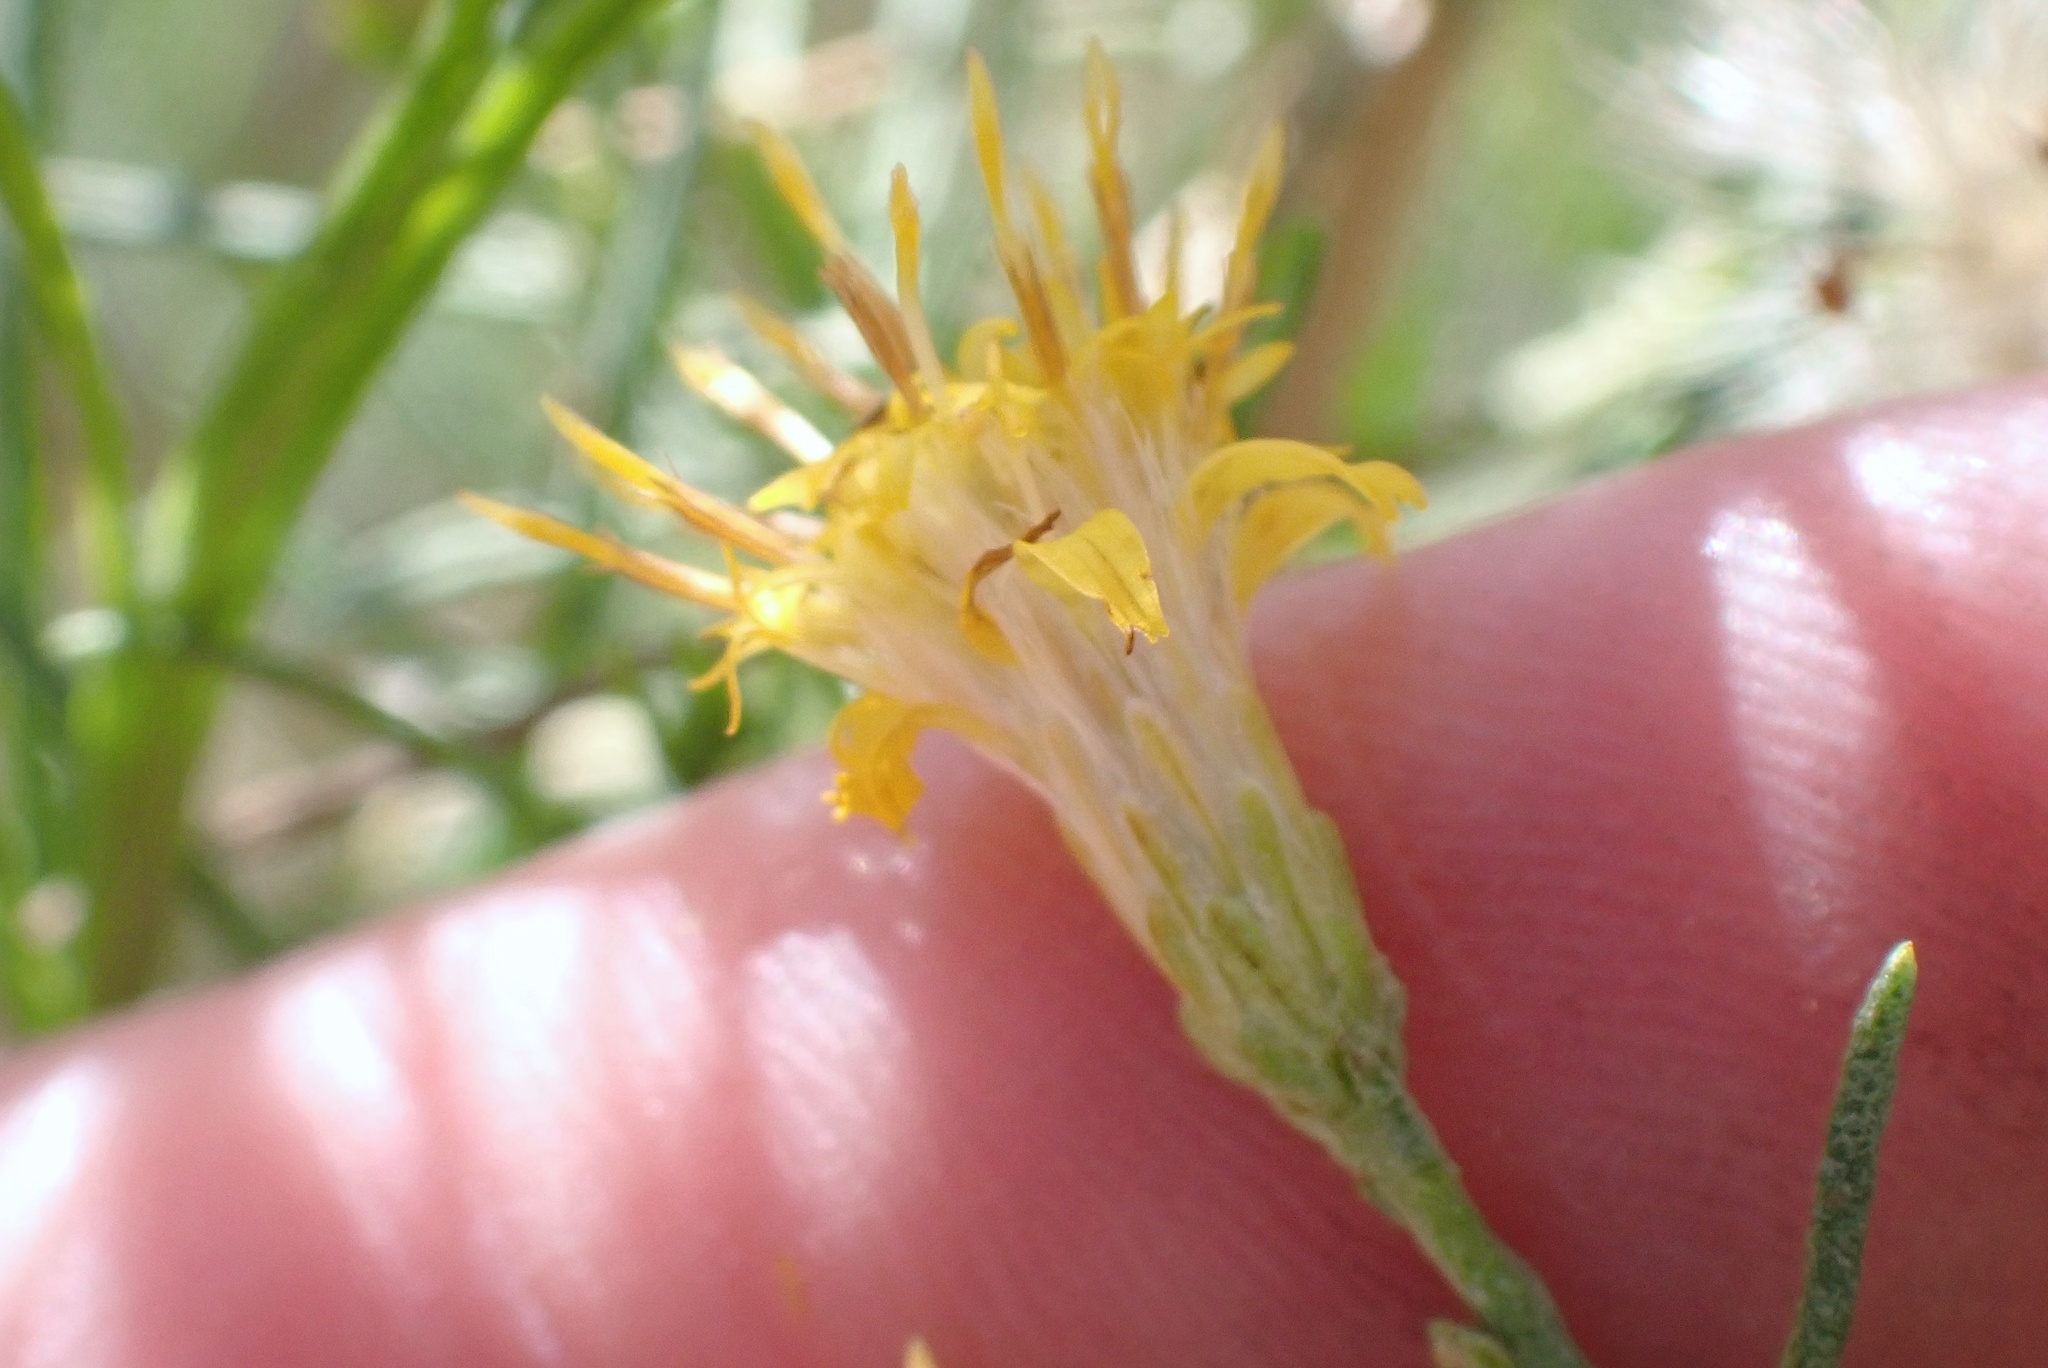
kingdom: Plantae
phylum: Tracheophyta
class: Magnoliopsida
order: Asterales
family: Asteraceae
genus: Ericameria
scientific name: Ericameria palmeri
